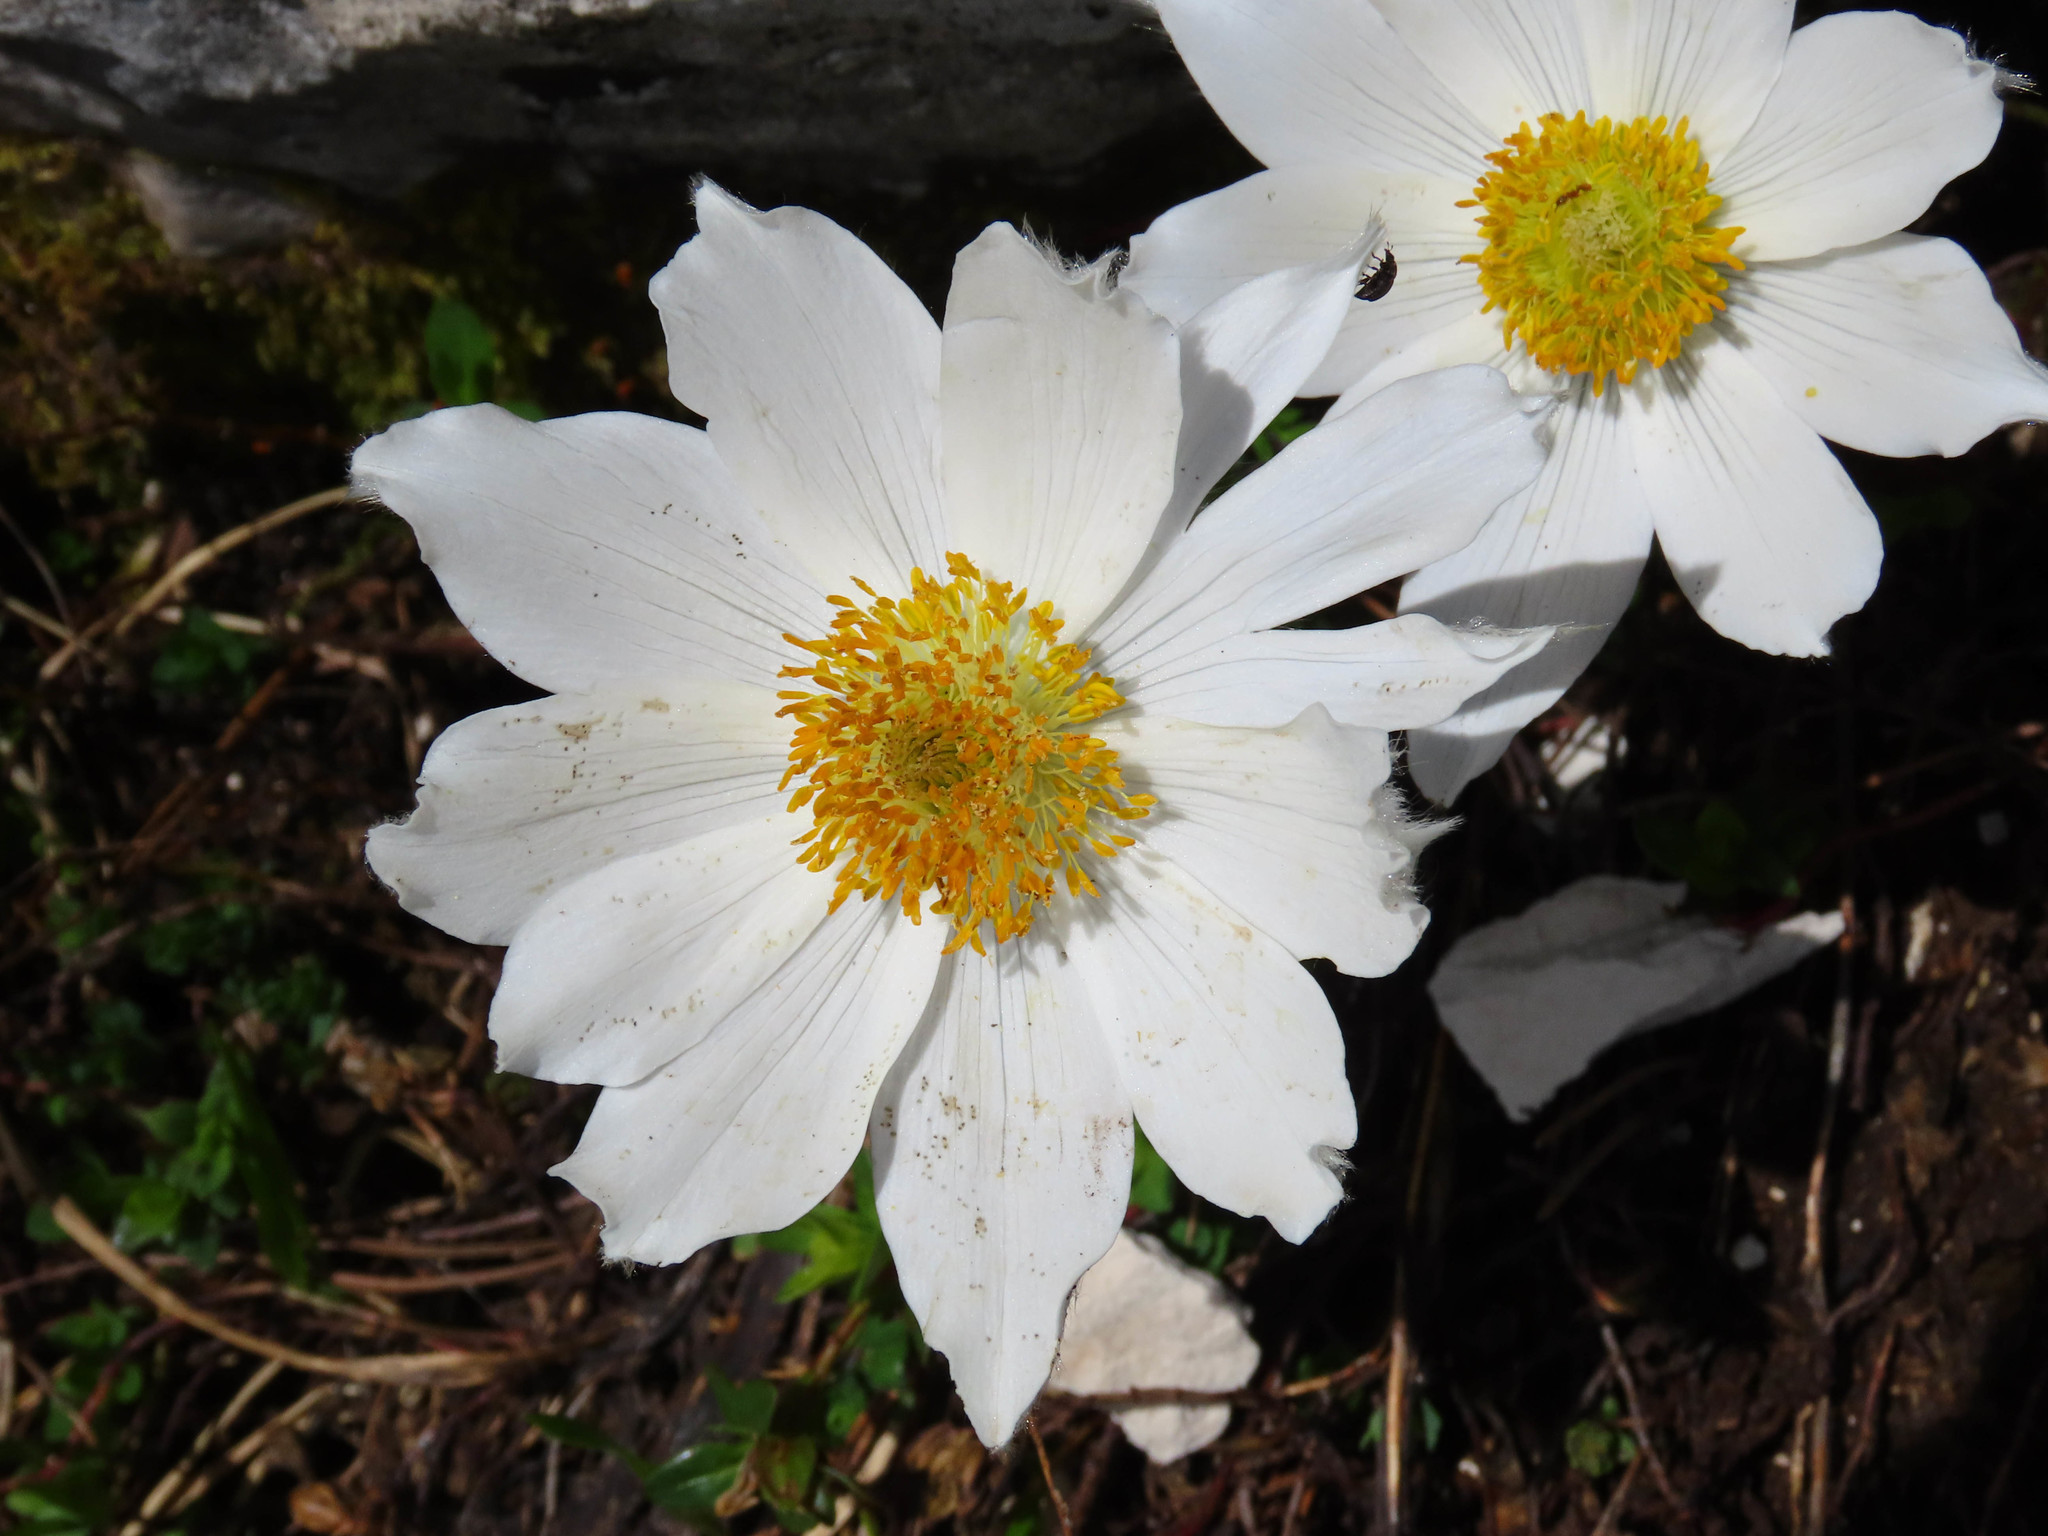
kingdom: Plantae
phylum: Tracheophyta
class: Magnoliopsida
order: Ranunculales
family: Ranunculaceae
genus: Pulsatilla
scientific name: Pulsatilla alpina
